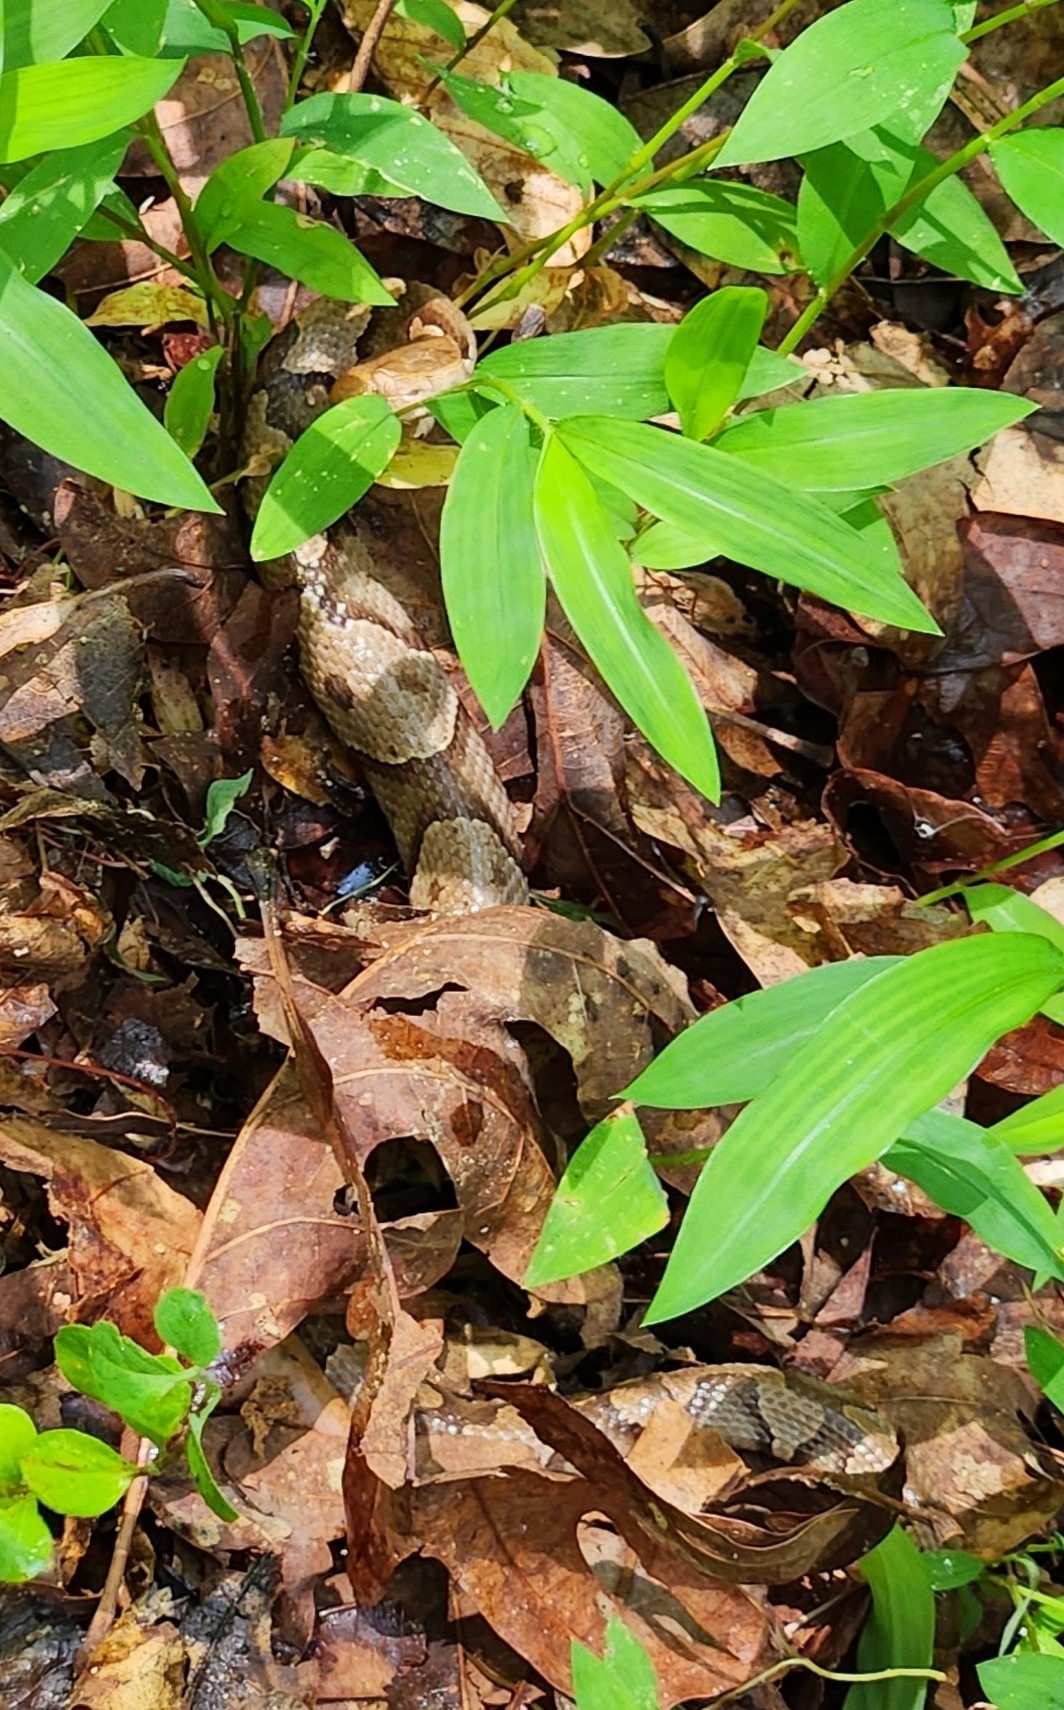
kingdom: Animalia
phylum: Chordata
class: Squamata
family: Viperidae
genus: Agkistrodon
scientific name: Agkistrodon contortrix
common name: Northern copperhead
